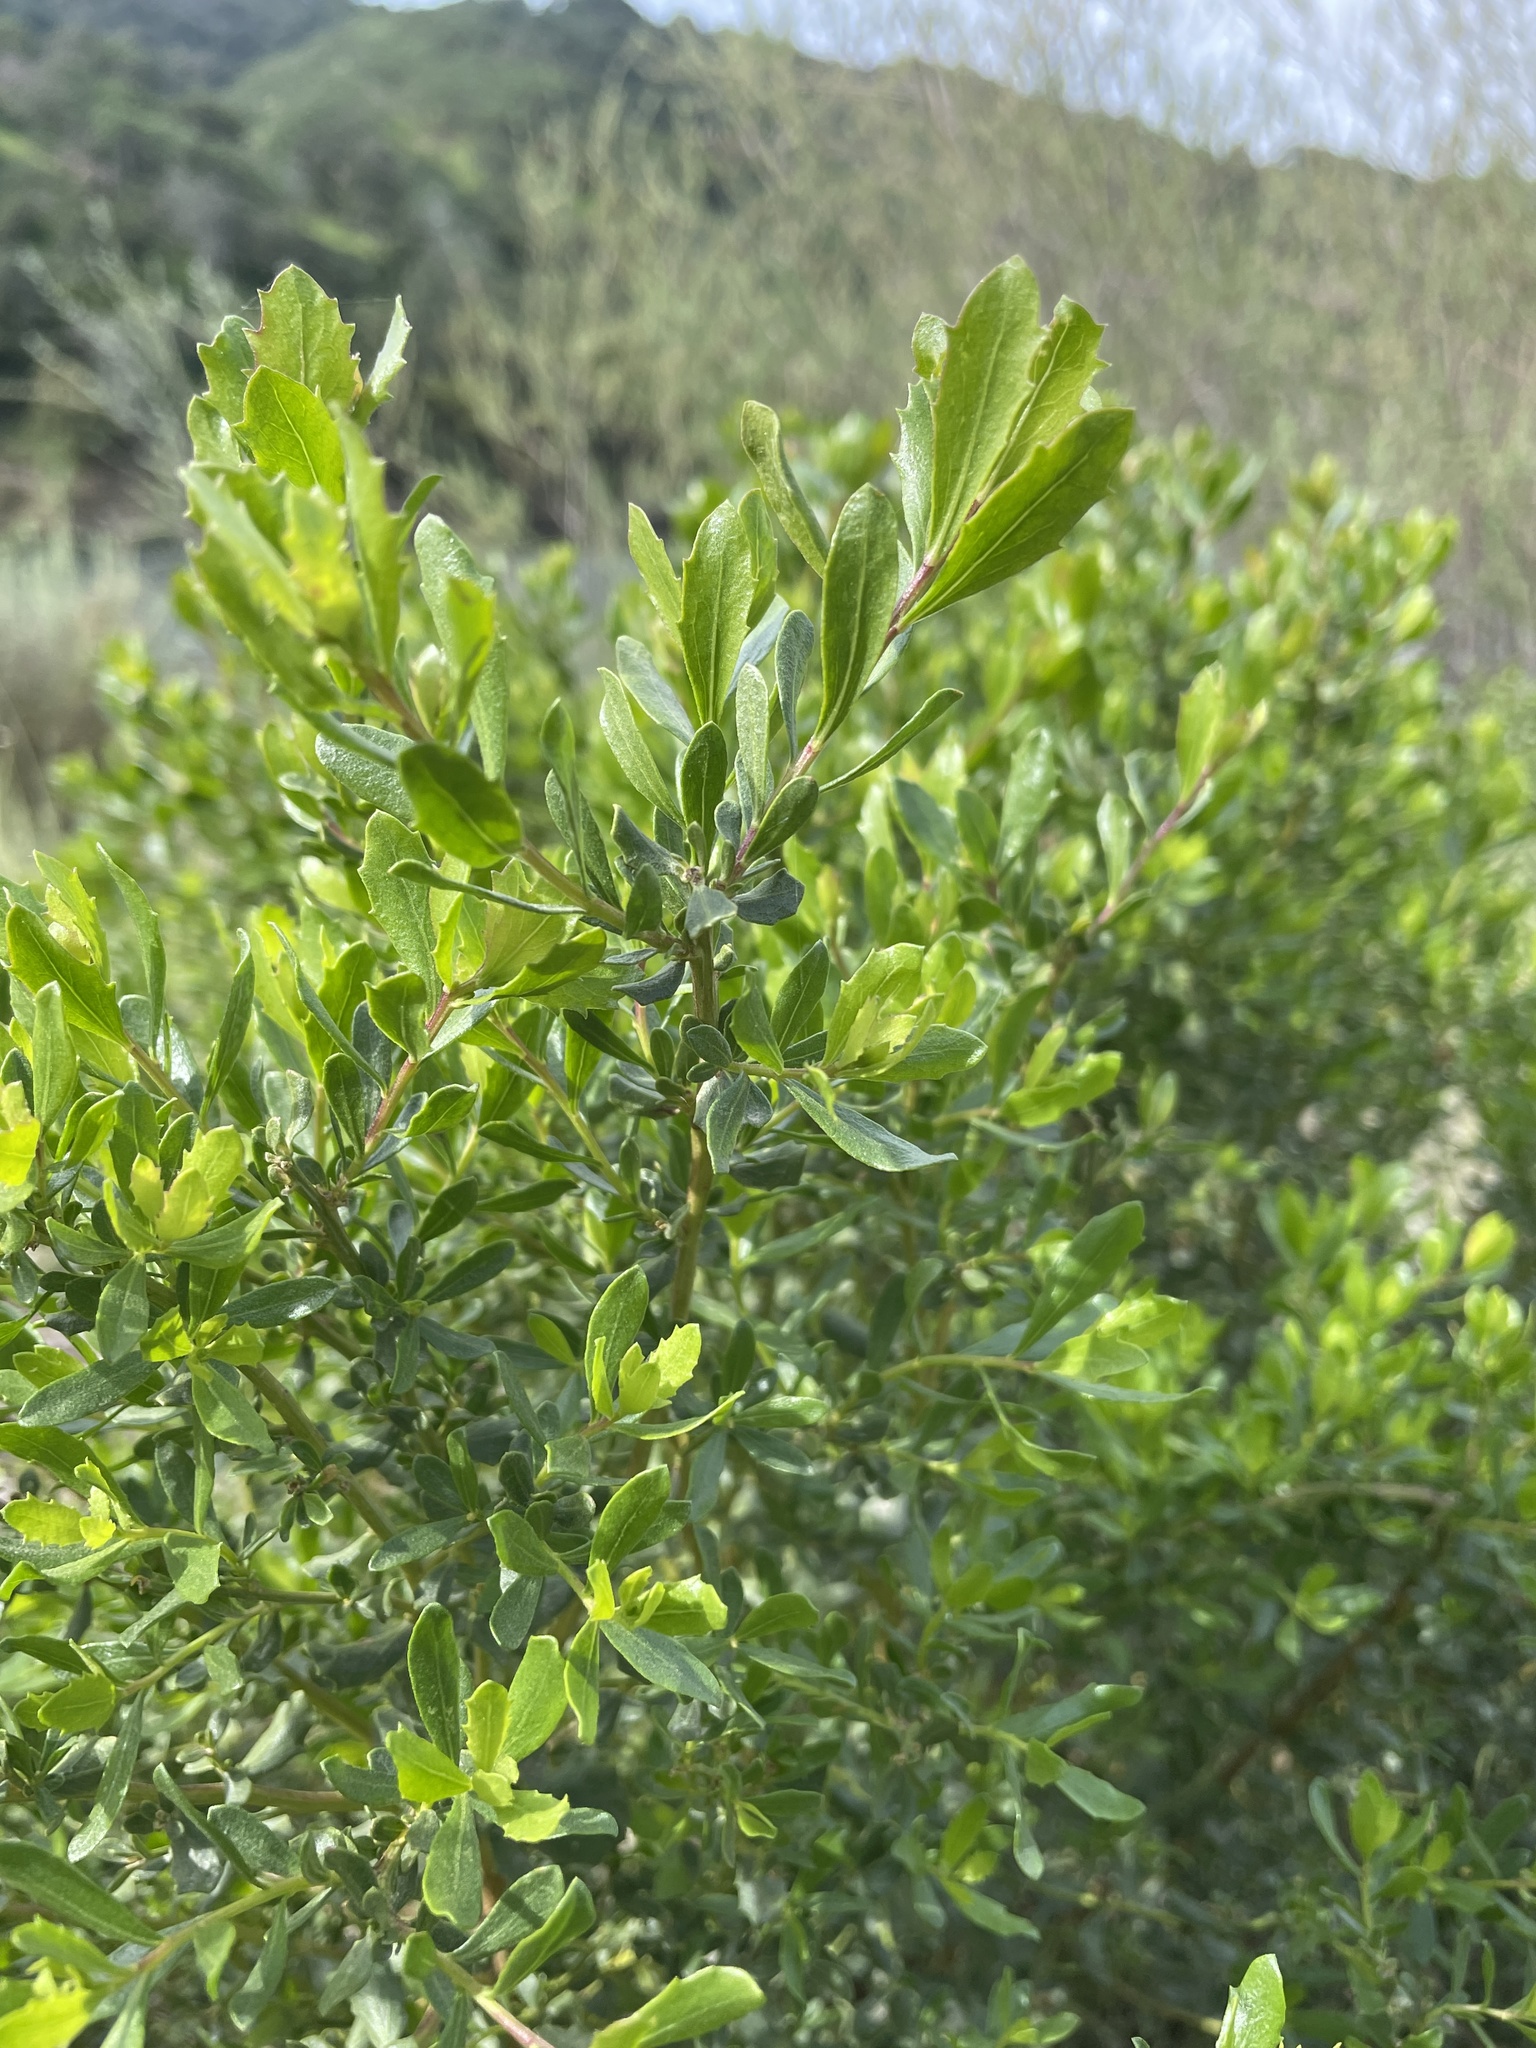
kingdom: Plantae
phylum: Tracheophyta
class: Magnoliopsida
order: Asterales
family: Asteraceae
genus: Baccharis
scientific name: Baccharis pilularis
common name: Coyotebrush
